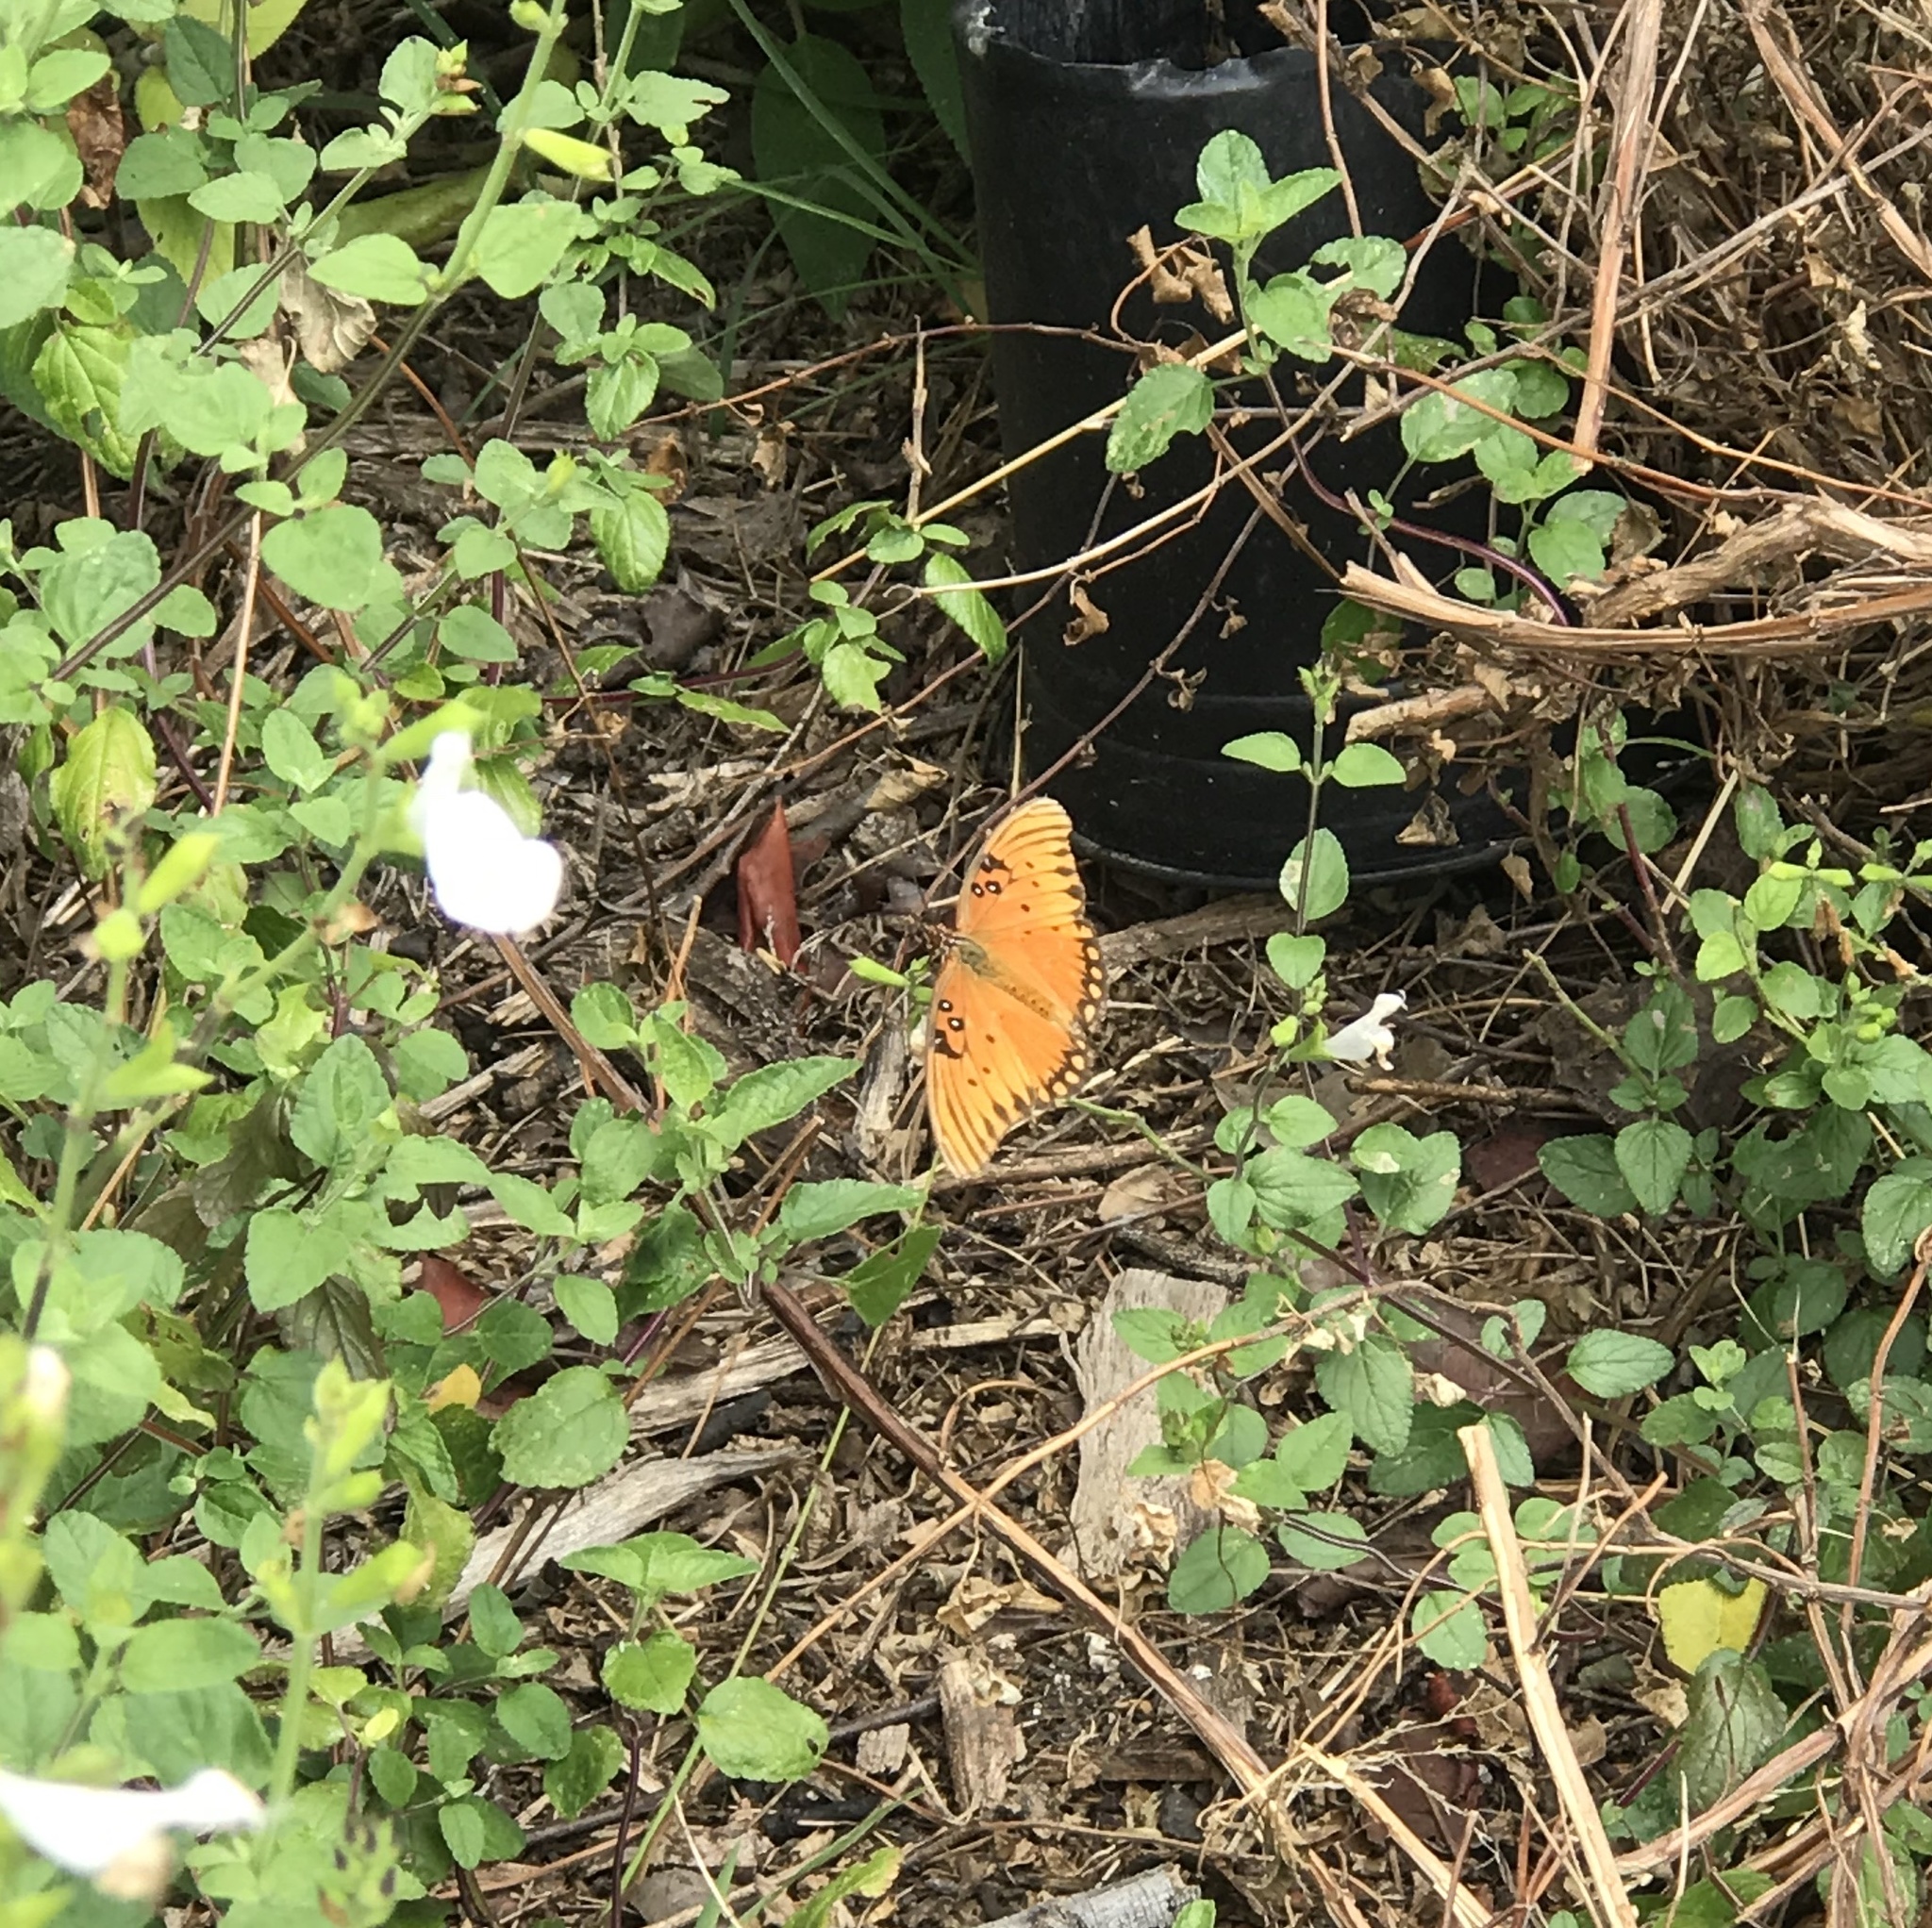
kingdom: Animalia
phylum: Arthropoda
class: Insecta
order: Lepidoptera
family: Nymphalidae
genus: Dione
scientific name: Dione vanillae
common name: Gulf fritillary
